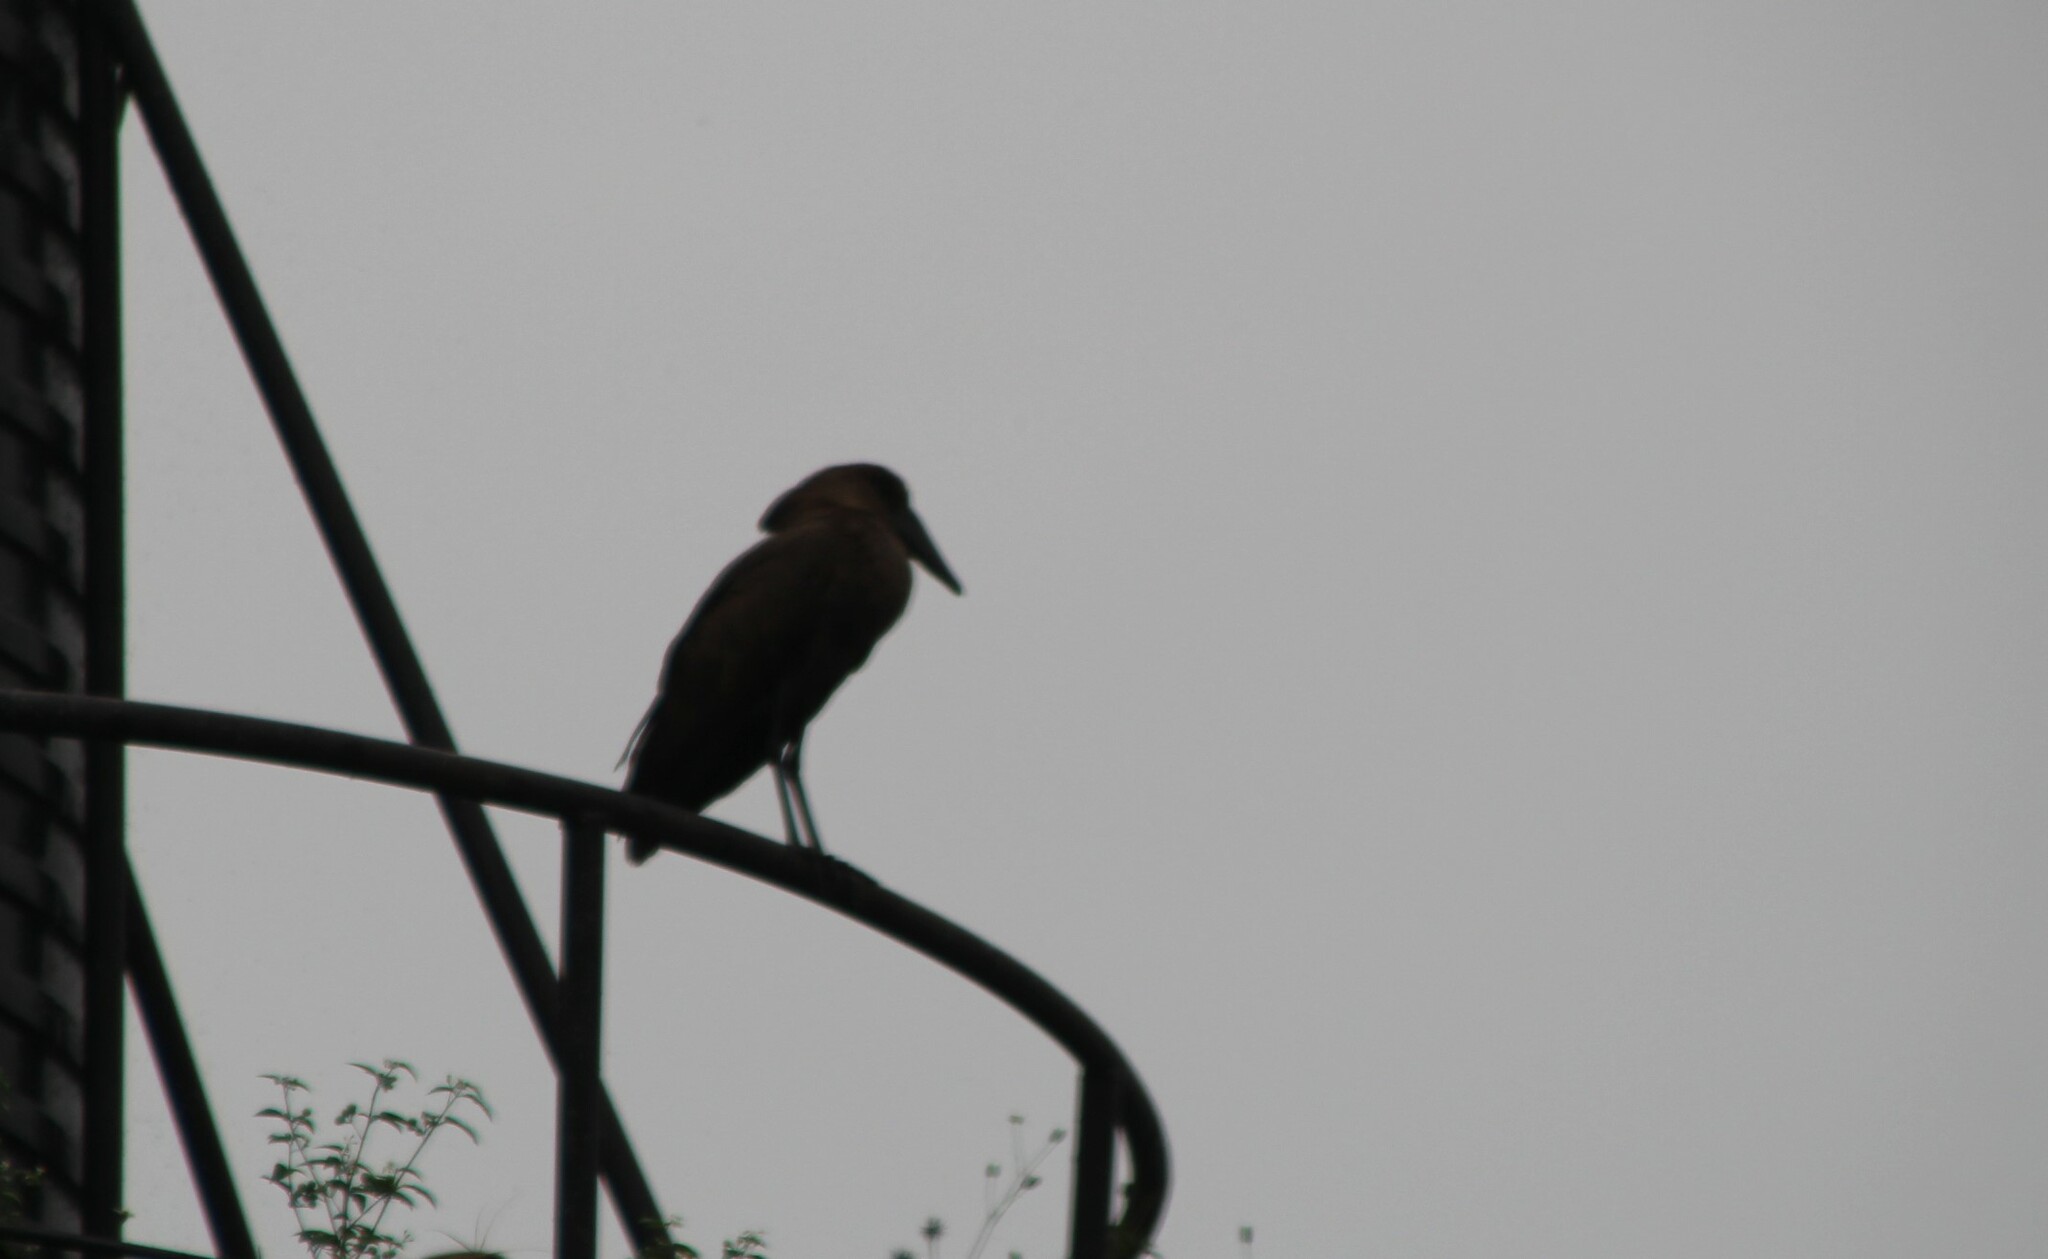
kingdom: Animalia
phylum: Chordata
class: Aves
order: Pelecaniformes
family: Scopidae
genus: Scopus
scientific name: Scopus umbretta
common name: Hamerkop
